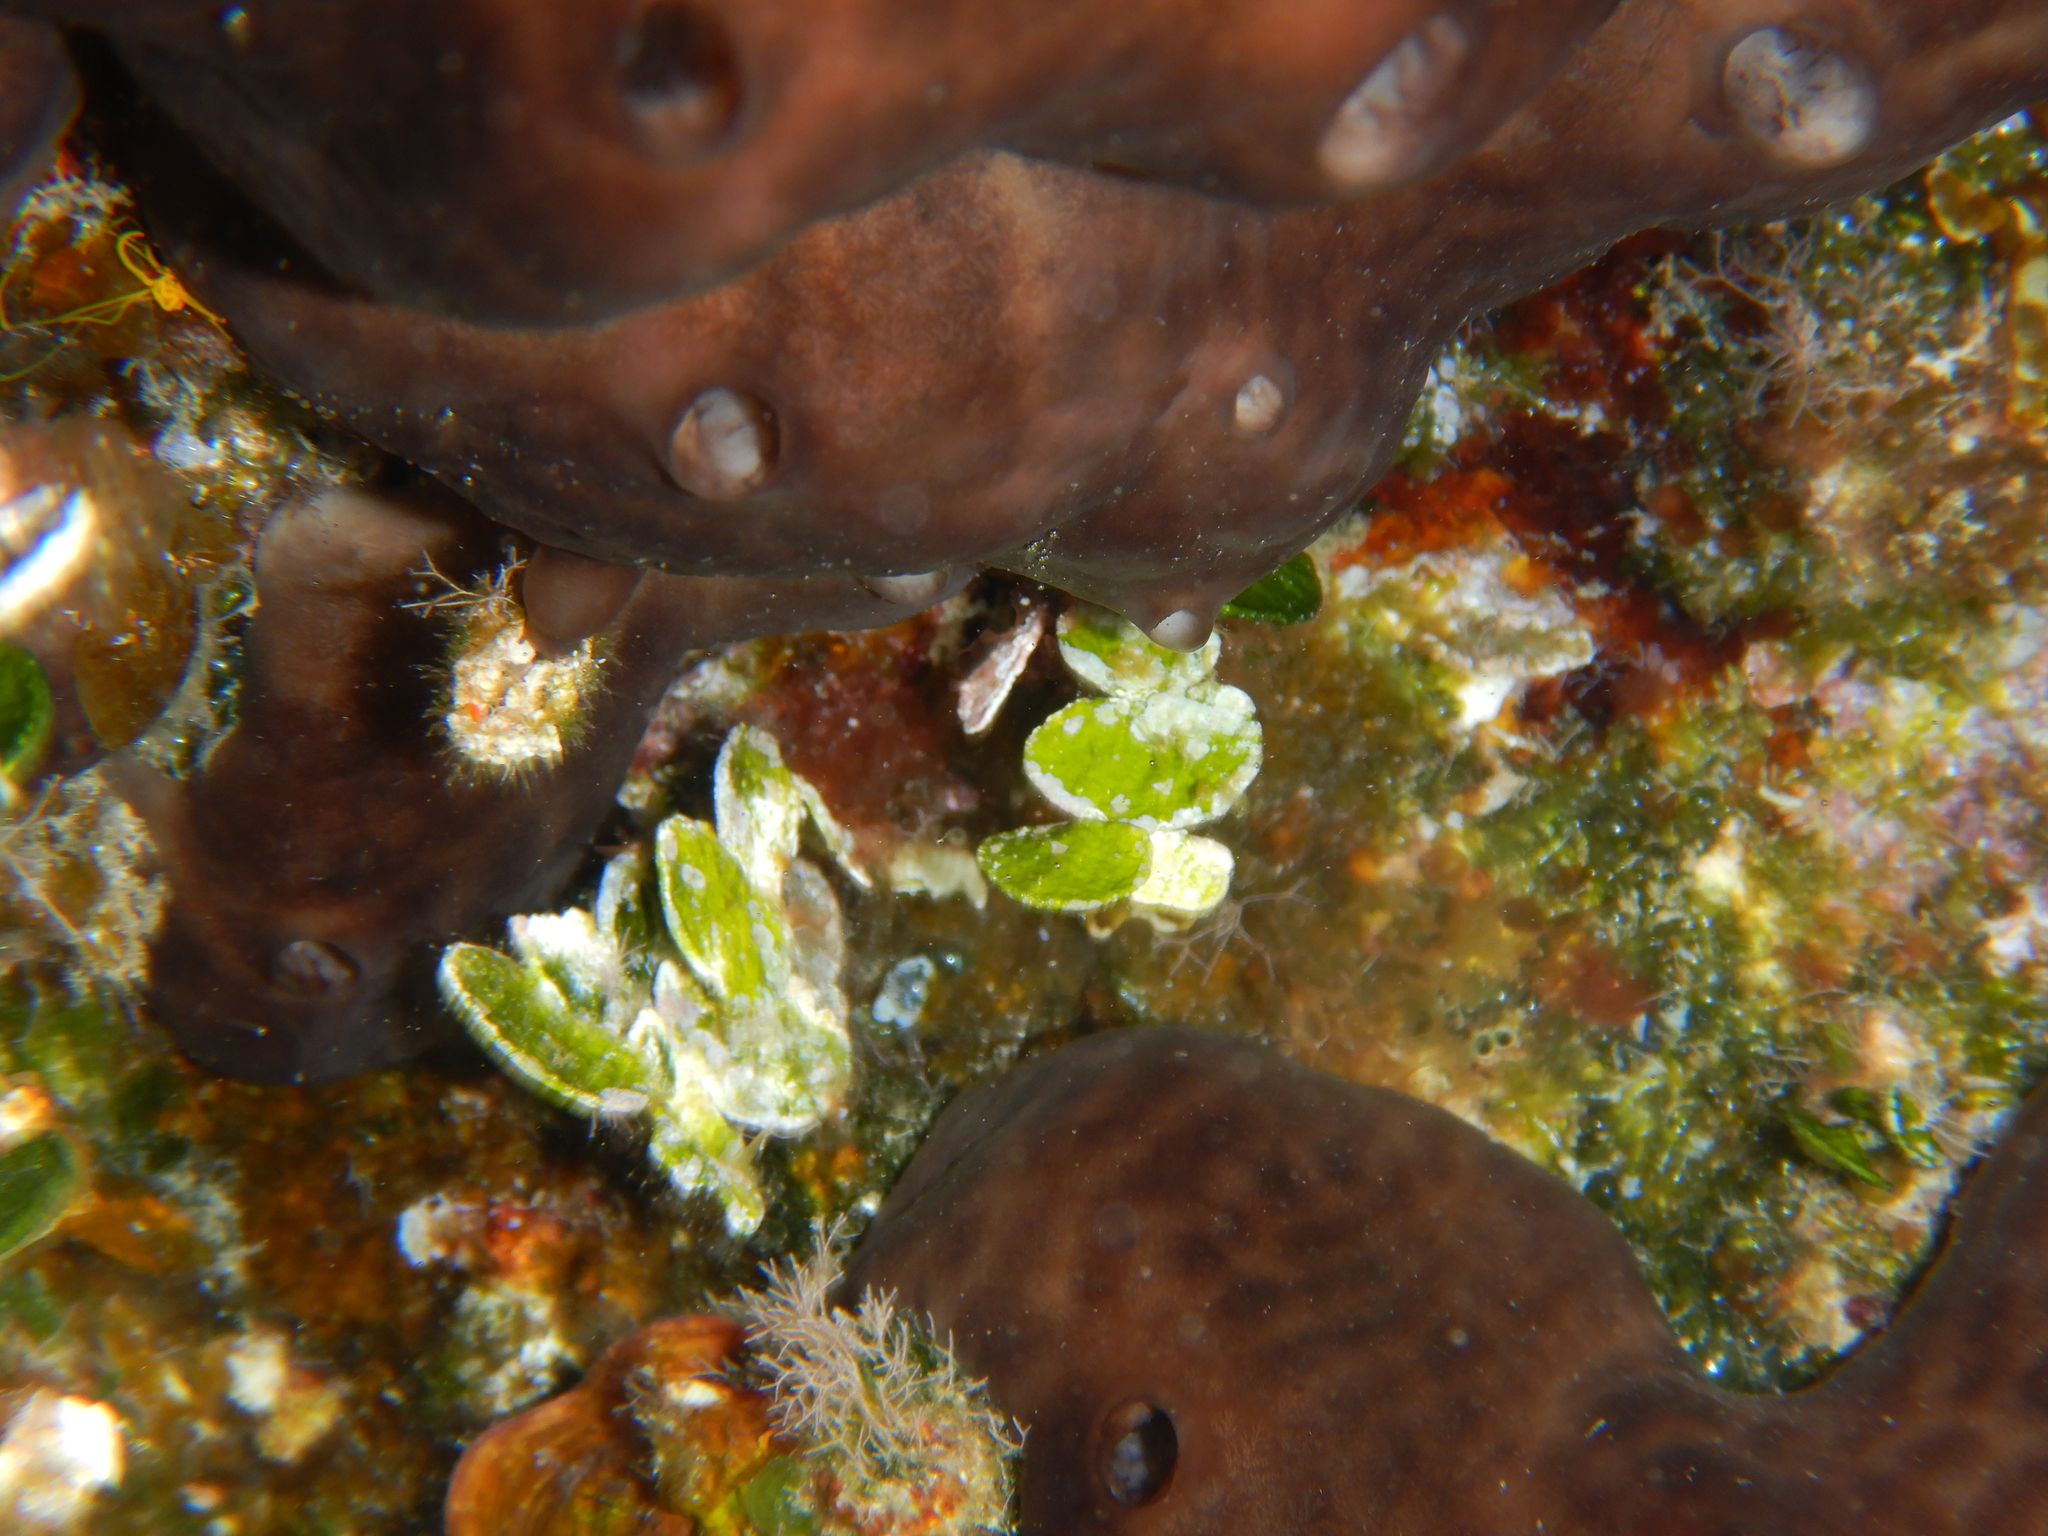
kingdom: Plantae
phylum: Chlorophyta
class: Ulvophyceae
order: Bryopsidales
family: Halimedaceae
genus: Halimeda
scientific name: Halimeda tuna
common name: Stalked lettuce leaf algae
